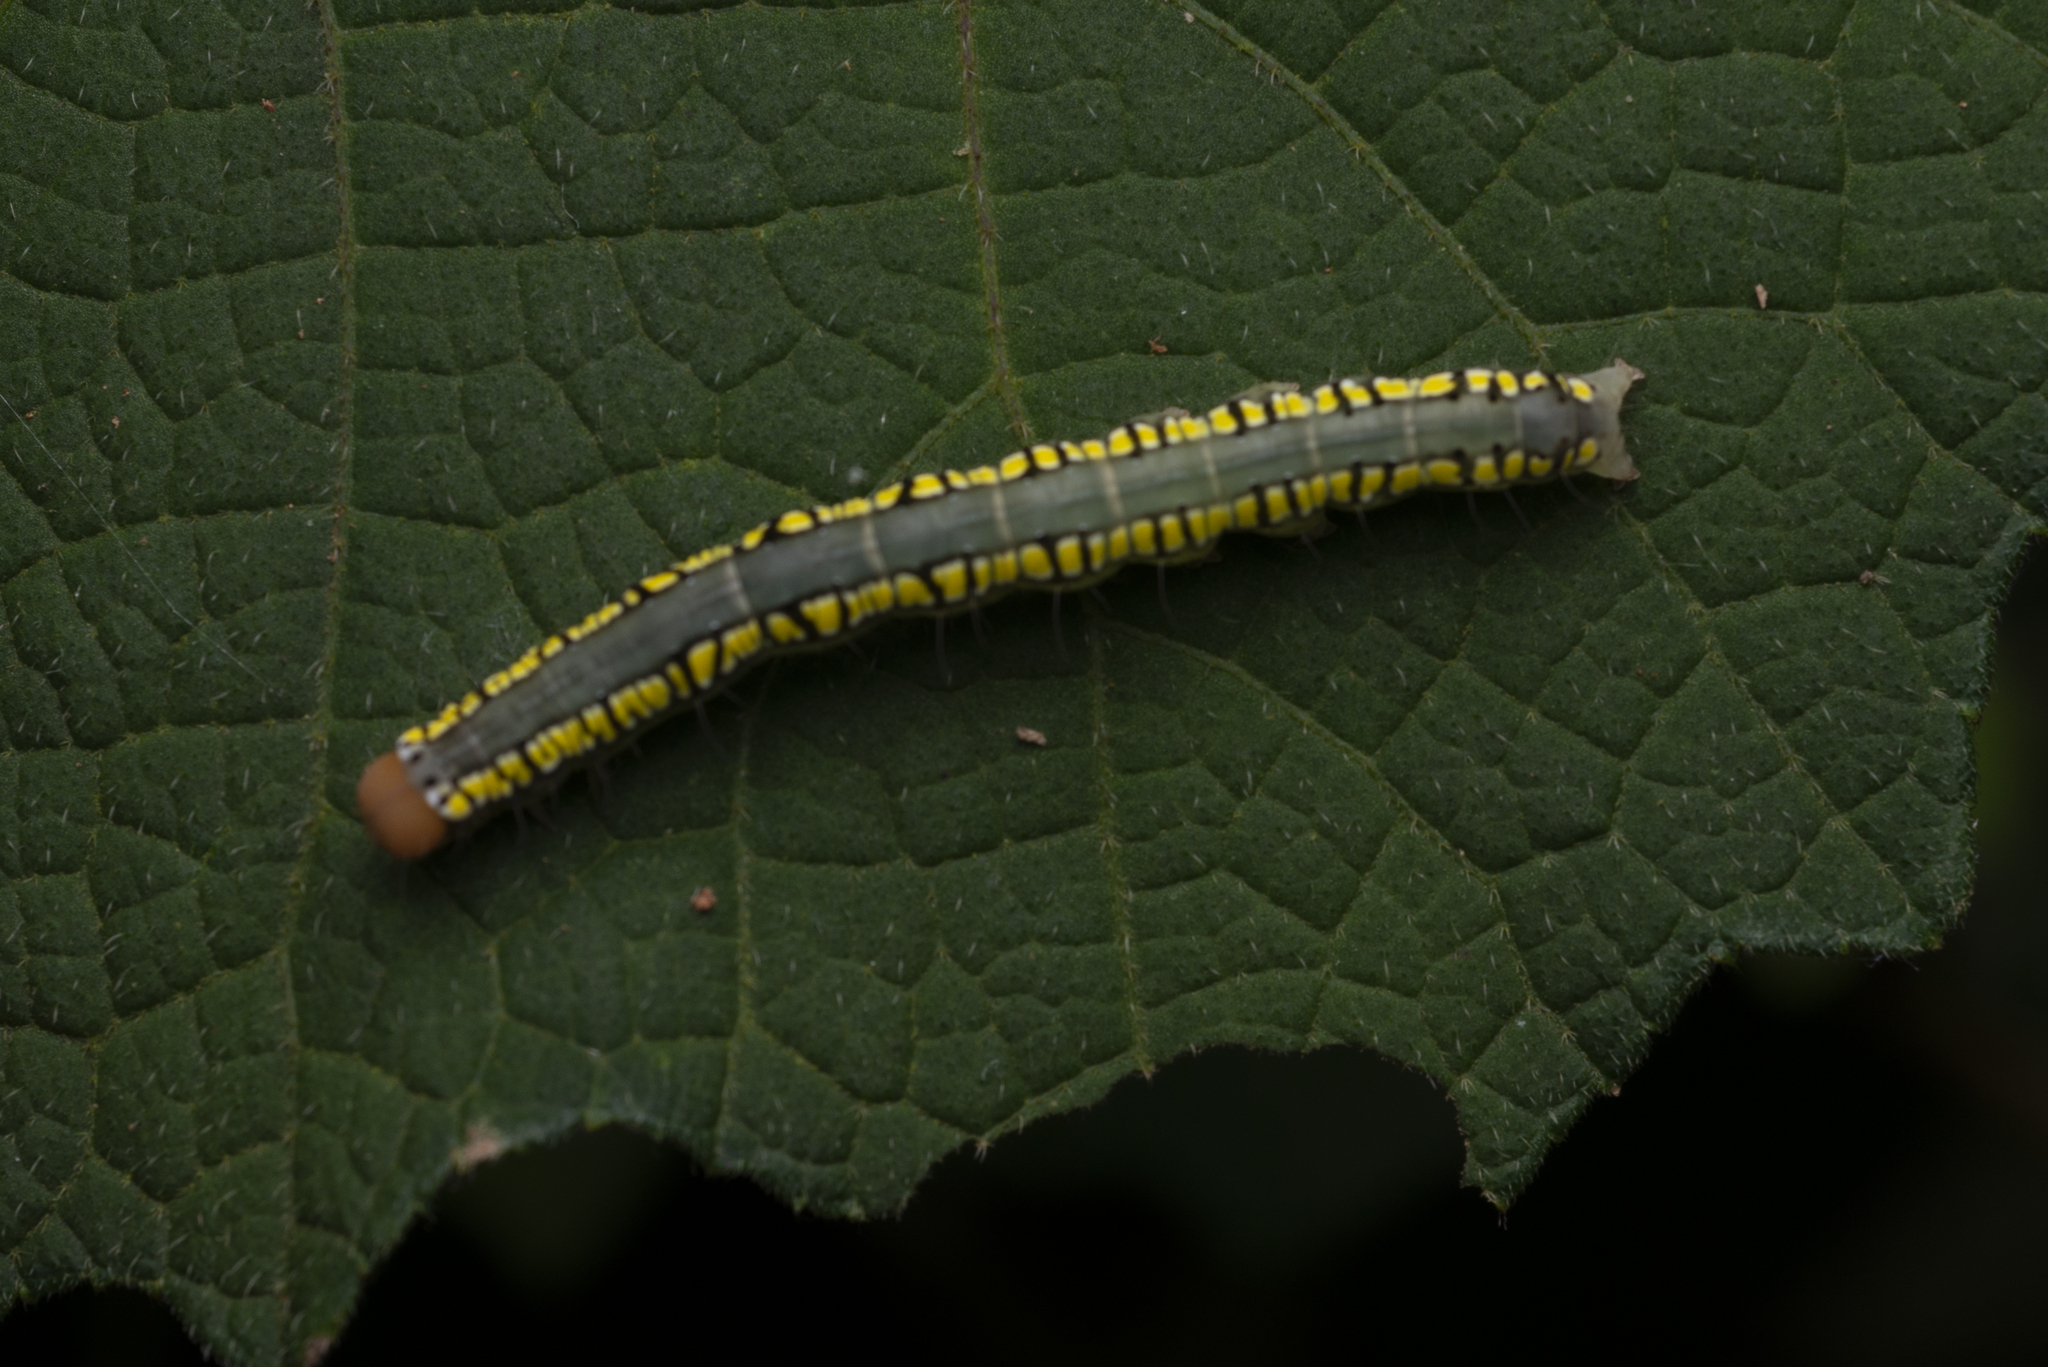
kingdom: Animalia
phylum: Arthropoda
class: Insecta
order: Lepidoptera
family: Erebidae
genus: Anomis
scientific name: Anomis fulvida
